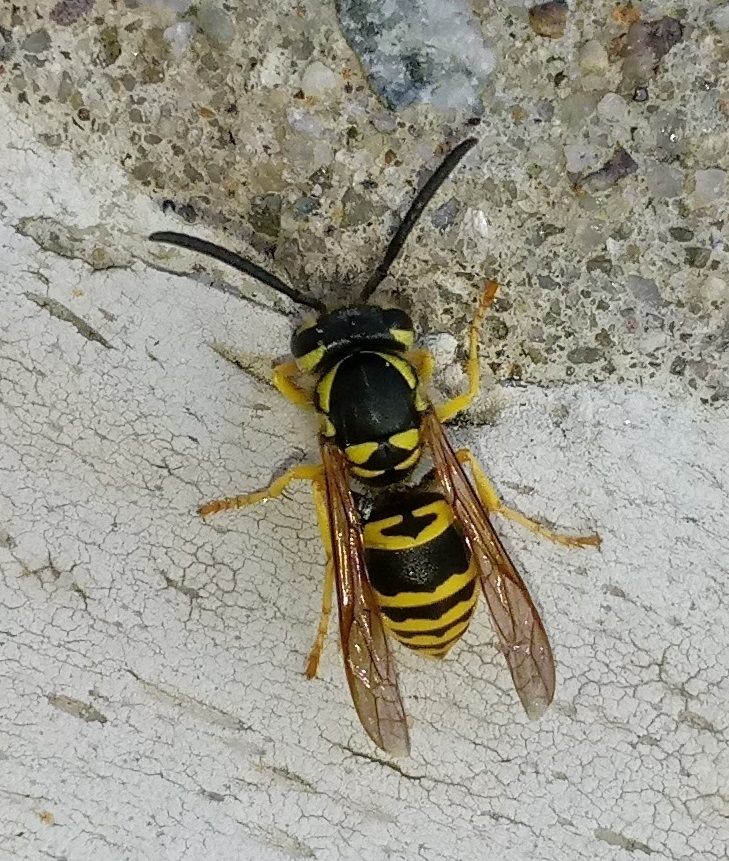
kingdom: Animalia
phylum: Arthropoda
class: Insecta
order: Hymenoptera
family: Vespidae
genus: Vespula
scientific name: Vespula maculifrons
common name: Eastern yellowjacket
